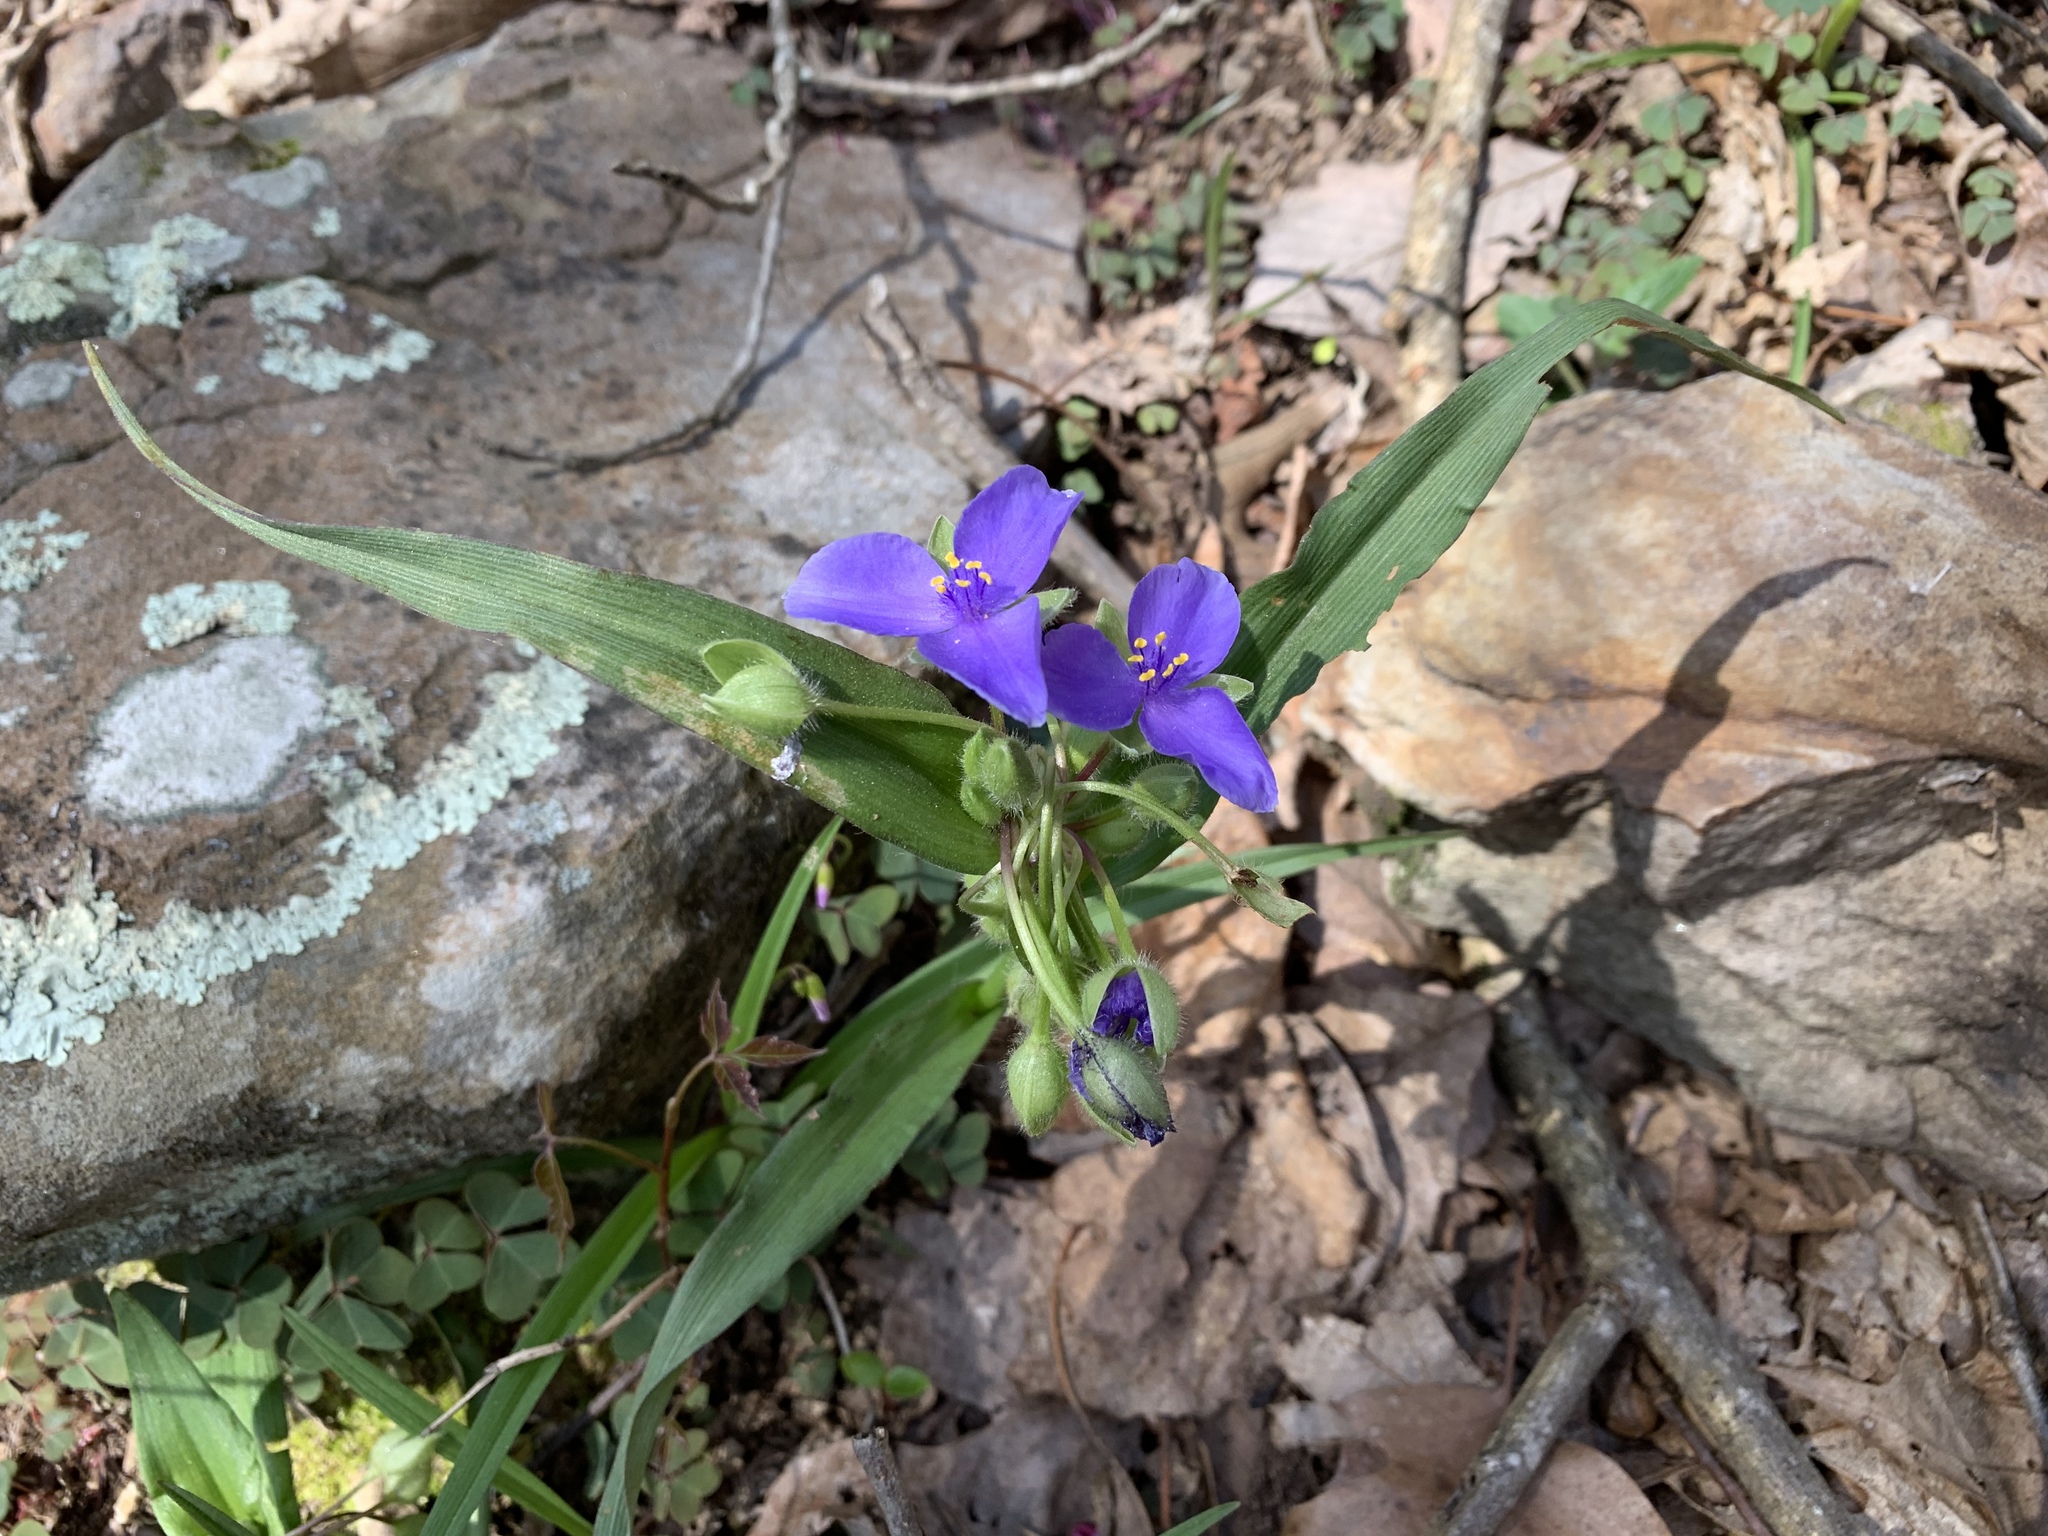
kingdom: Plantae
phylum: Tracheophyta
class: Liliopsida
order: Commelinales
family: Commelinaceae
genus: Tradescantia
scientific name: Tradescantia virginiana
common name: Spiderwort
